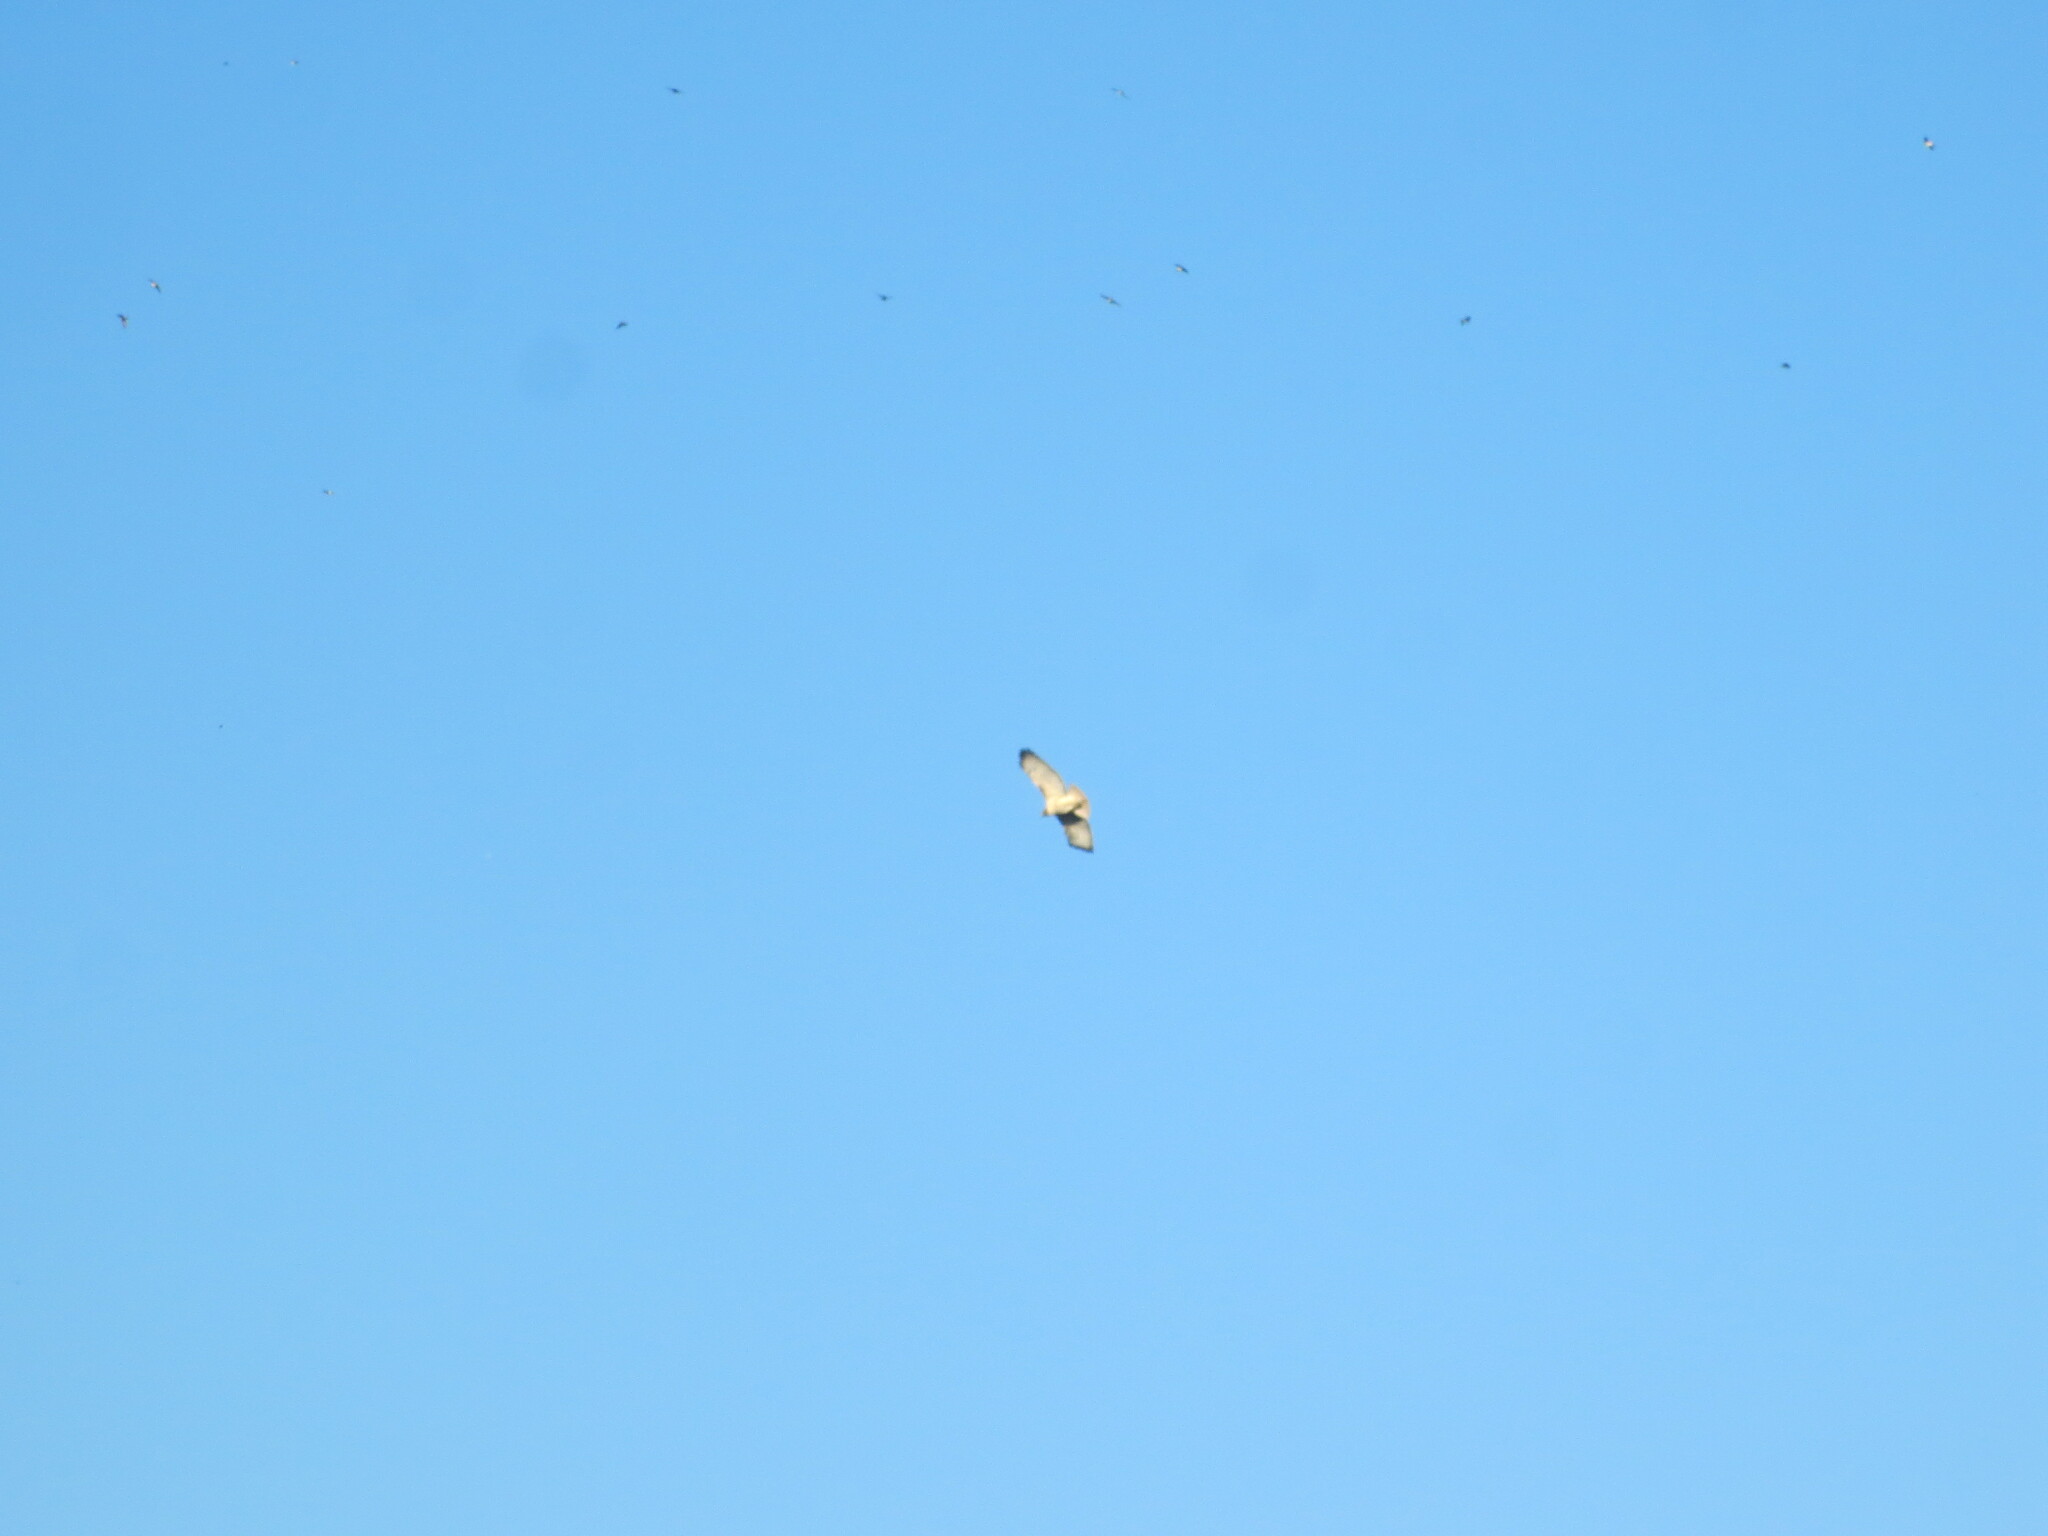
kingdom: Animalia
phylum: Chordata
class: Aves
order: Accipitriformes
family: Accipitridae
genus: Buteo
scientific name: Buteo jamaicensis
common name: Red-tailed hawk
